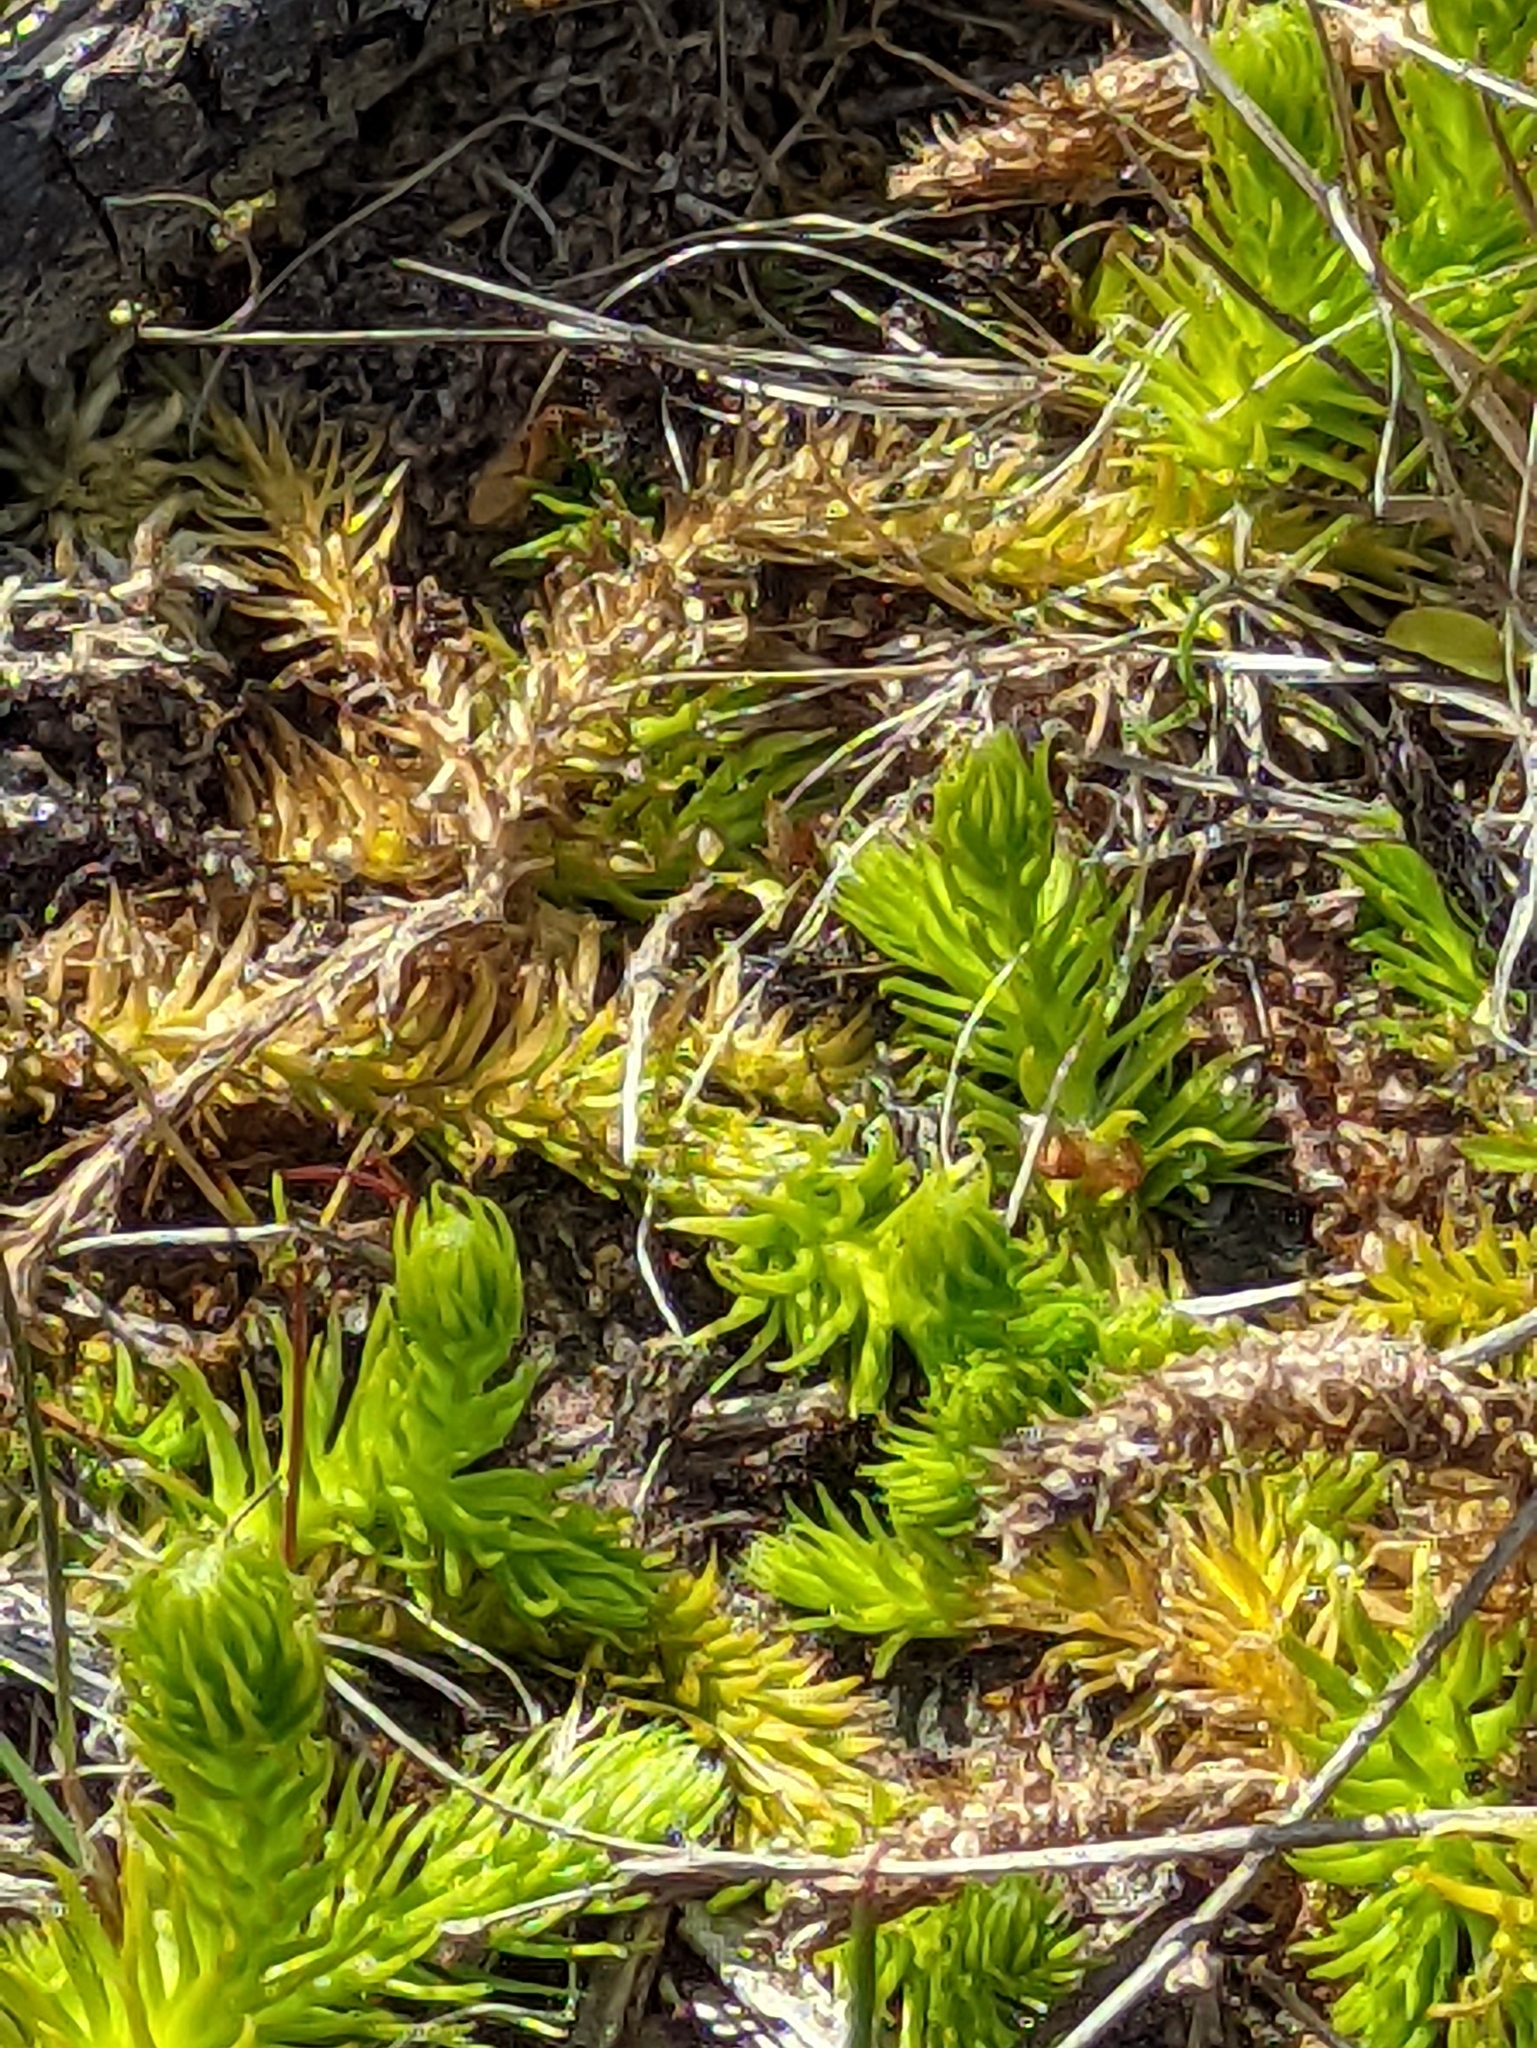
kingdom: Plantae
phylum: Tracheophyta
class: Lycopodiopsida
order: Lycopodiales
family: Lycopodiaceae
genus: Lycopodiella
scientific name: Lycopodiella inundata
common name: Marsh clubmoss
